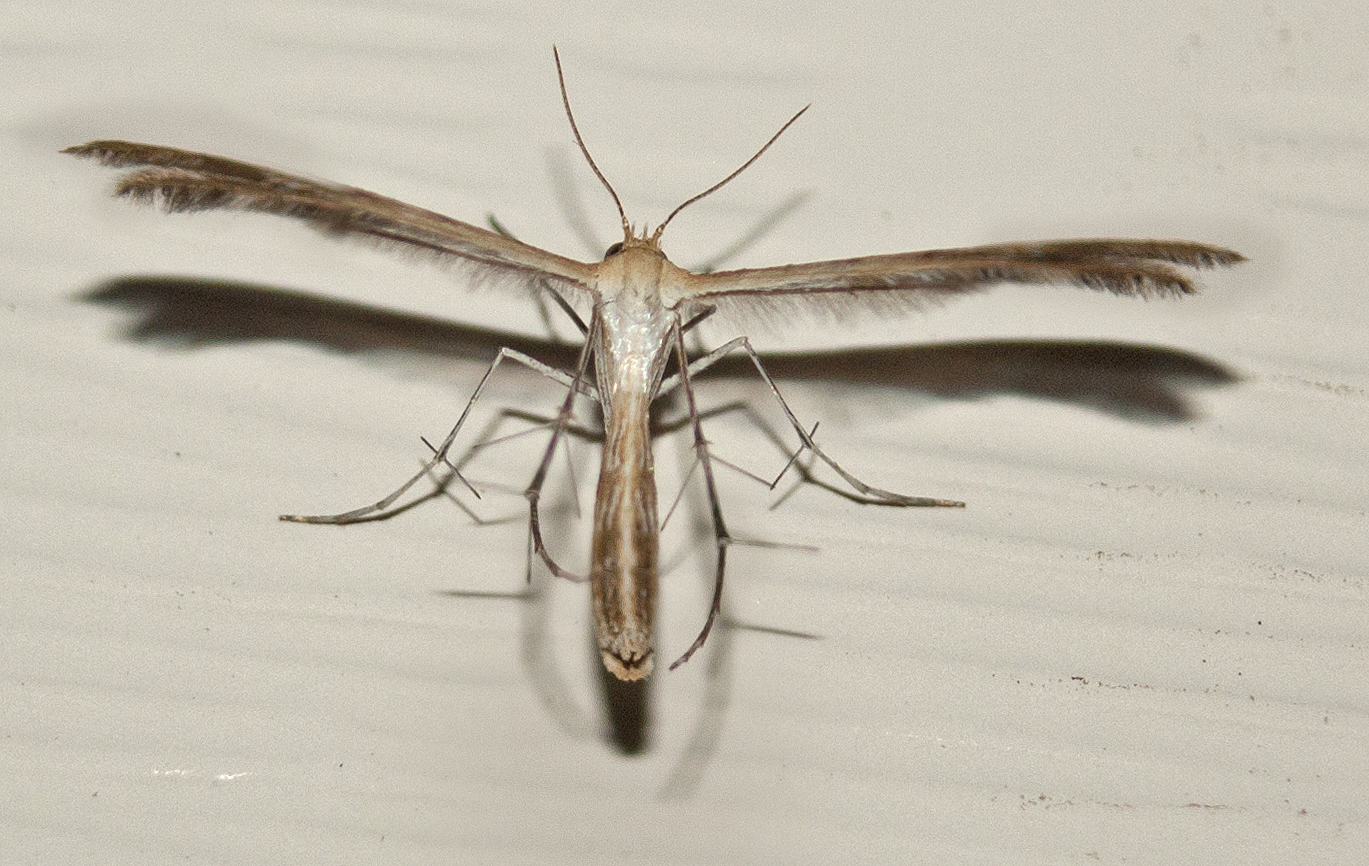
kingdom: Animalia
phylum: Arthropoda
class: Insecta
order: Lepidoptera
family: Pterophoridae
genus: Megalorhipida
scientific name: Megalorhipida leucodactylus
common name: Plume moth
